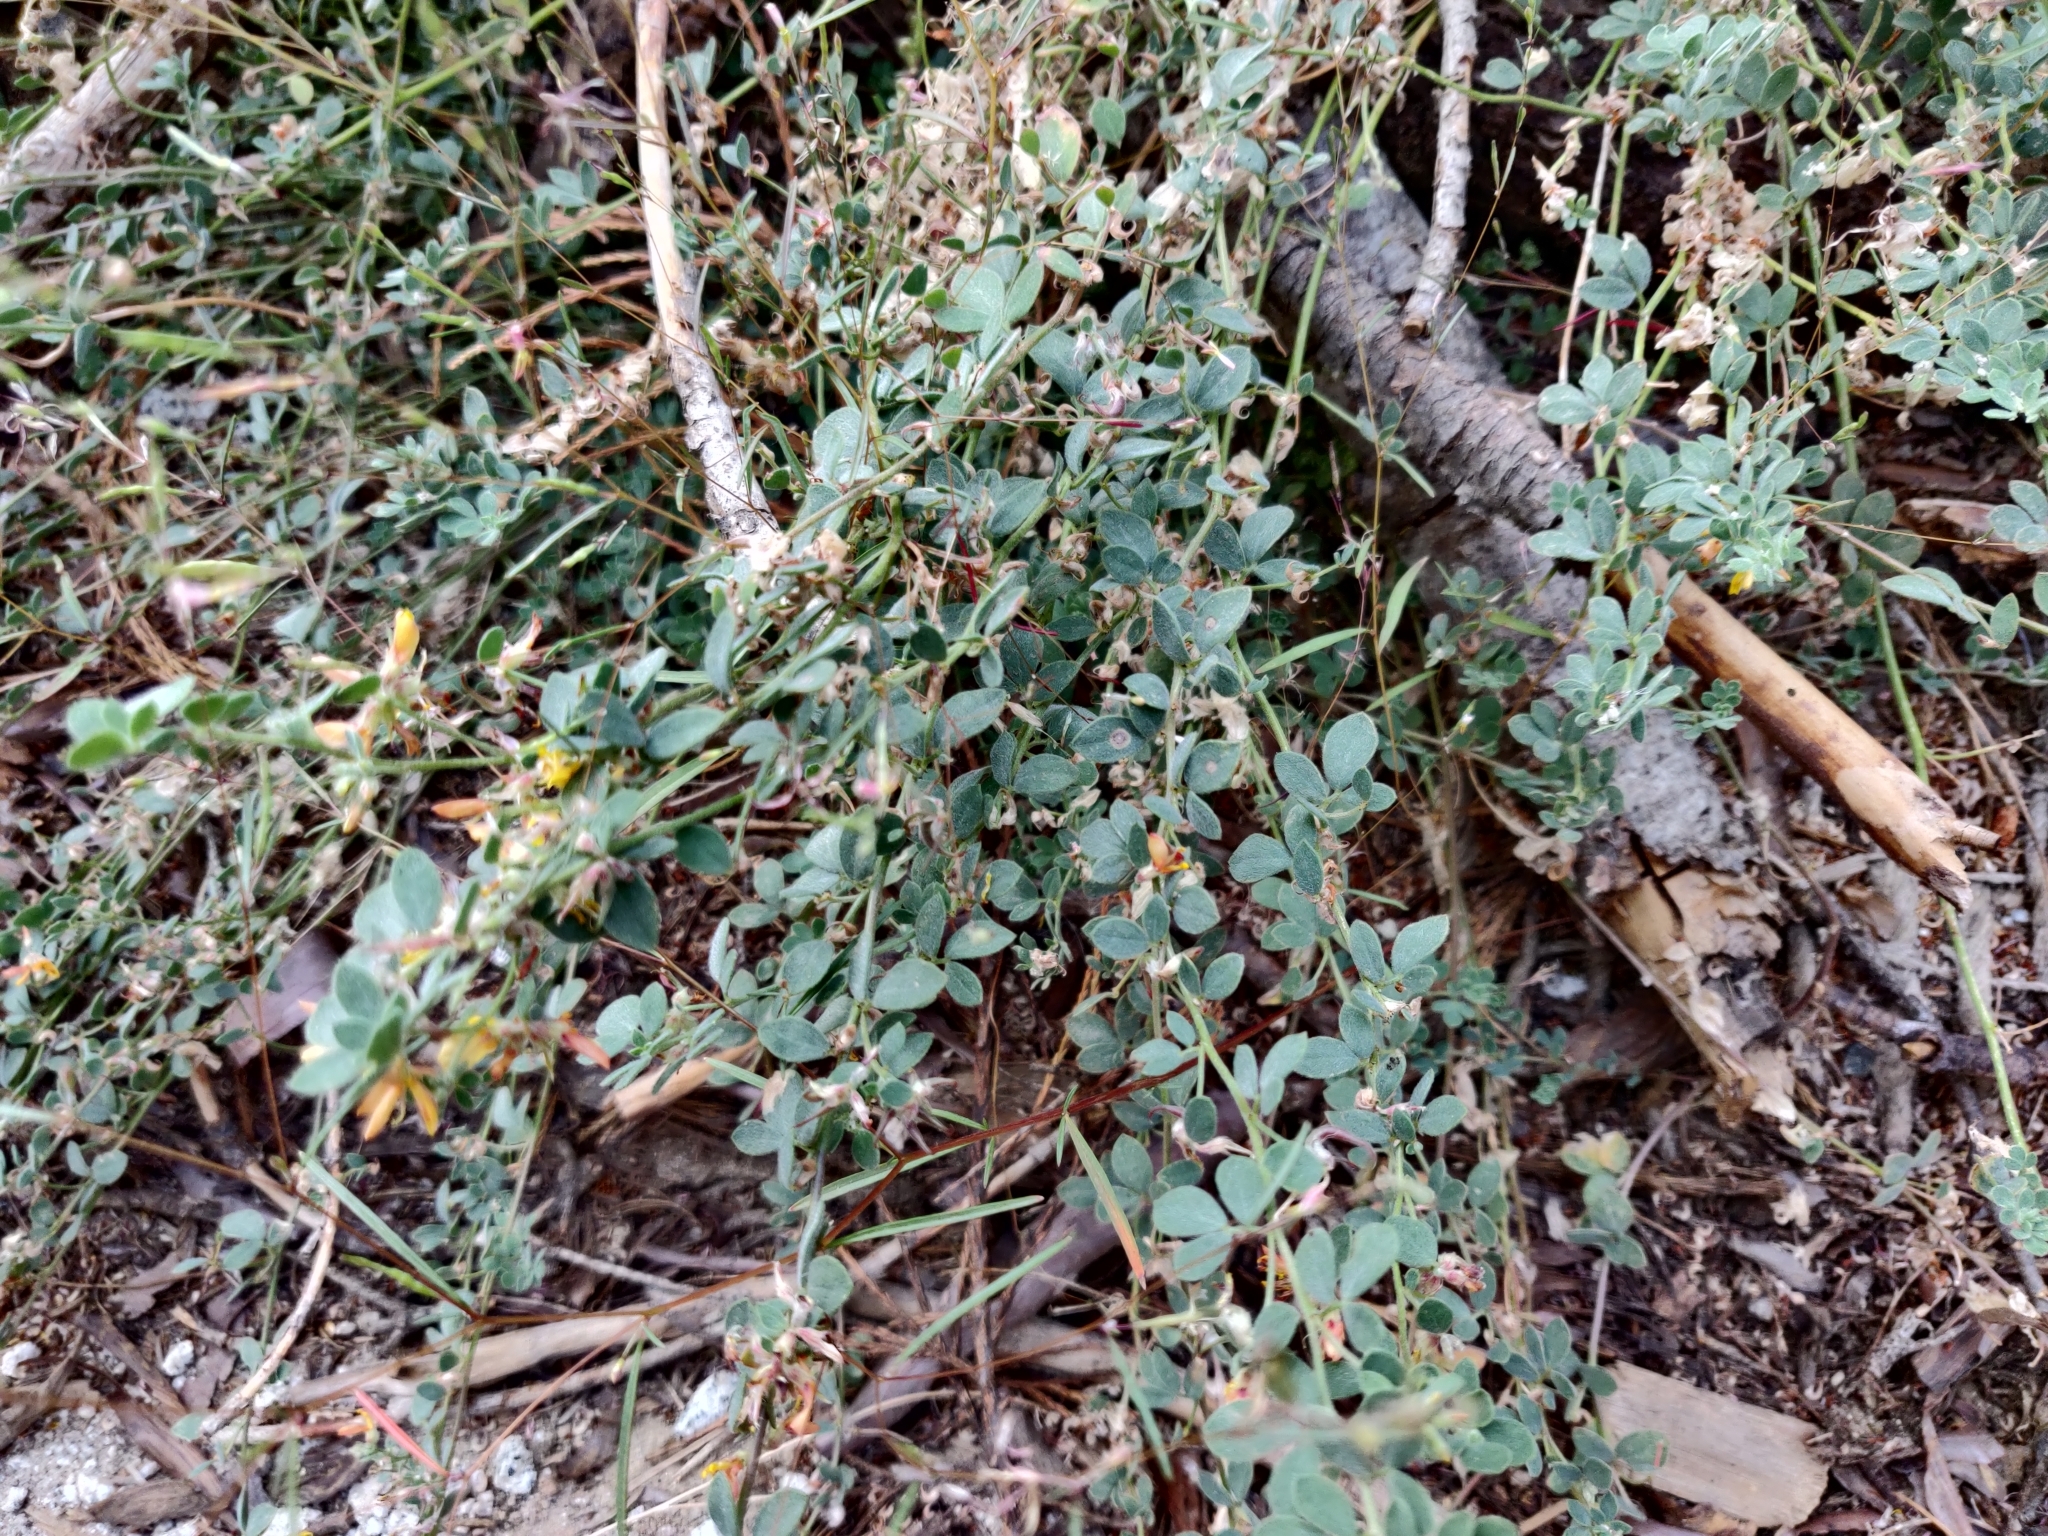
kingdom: Plantae
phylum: Tracheophyta
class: Magnoliopsida
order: Fabales
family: Fabaceae
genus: Acmispon
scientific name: Acmispon decumbens
